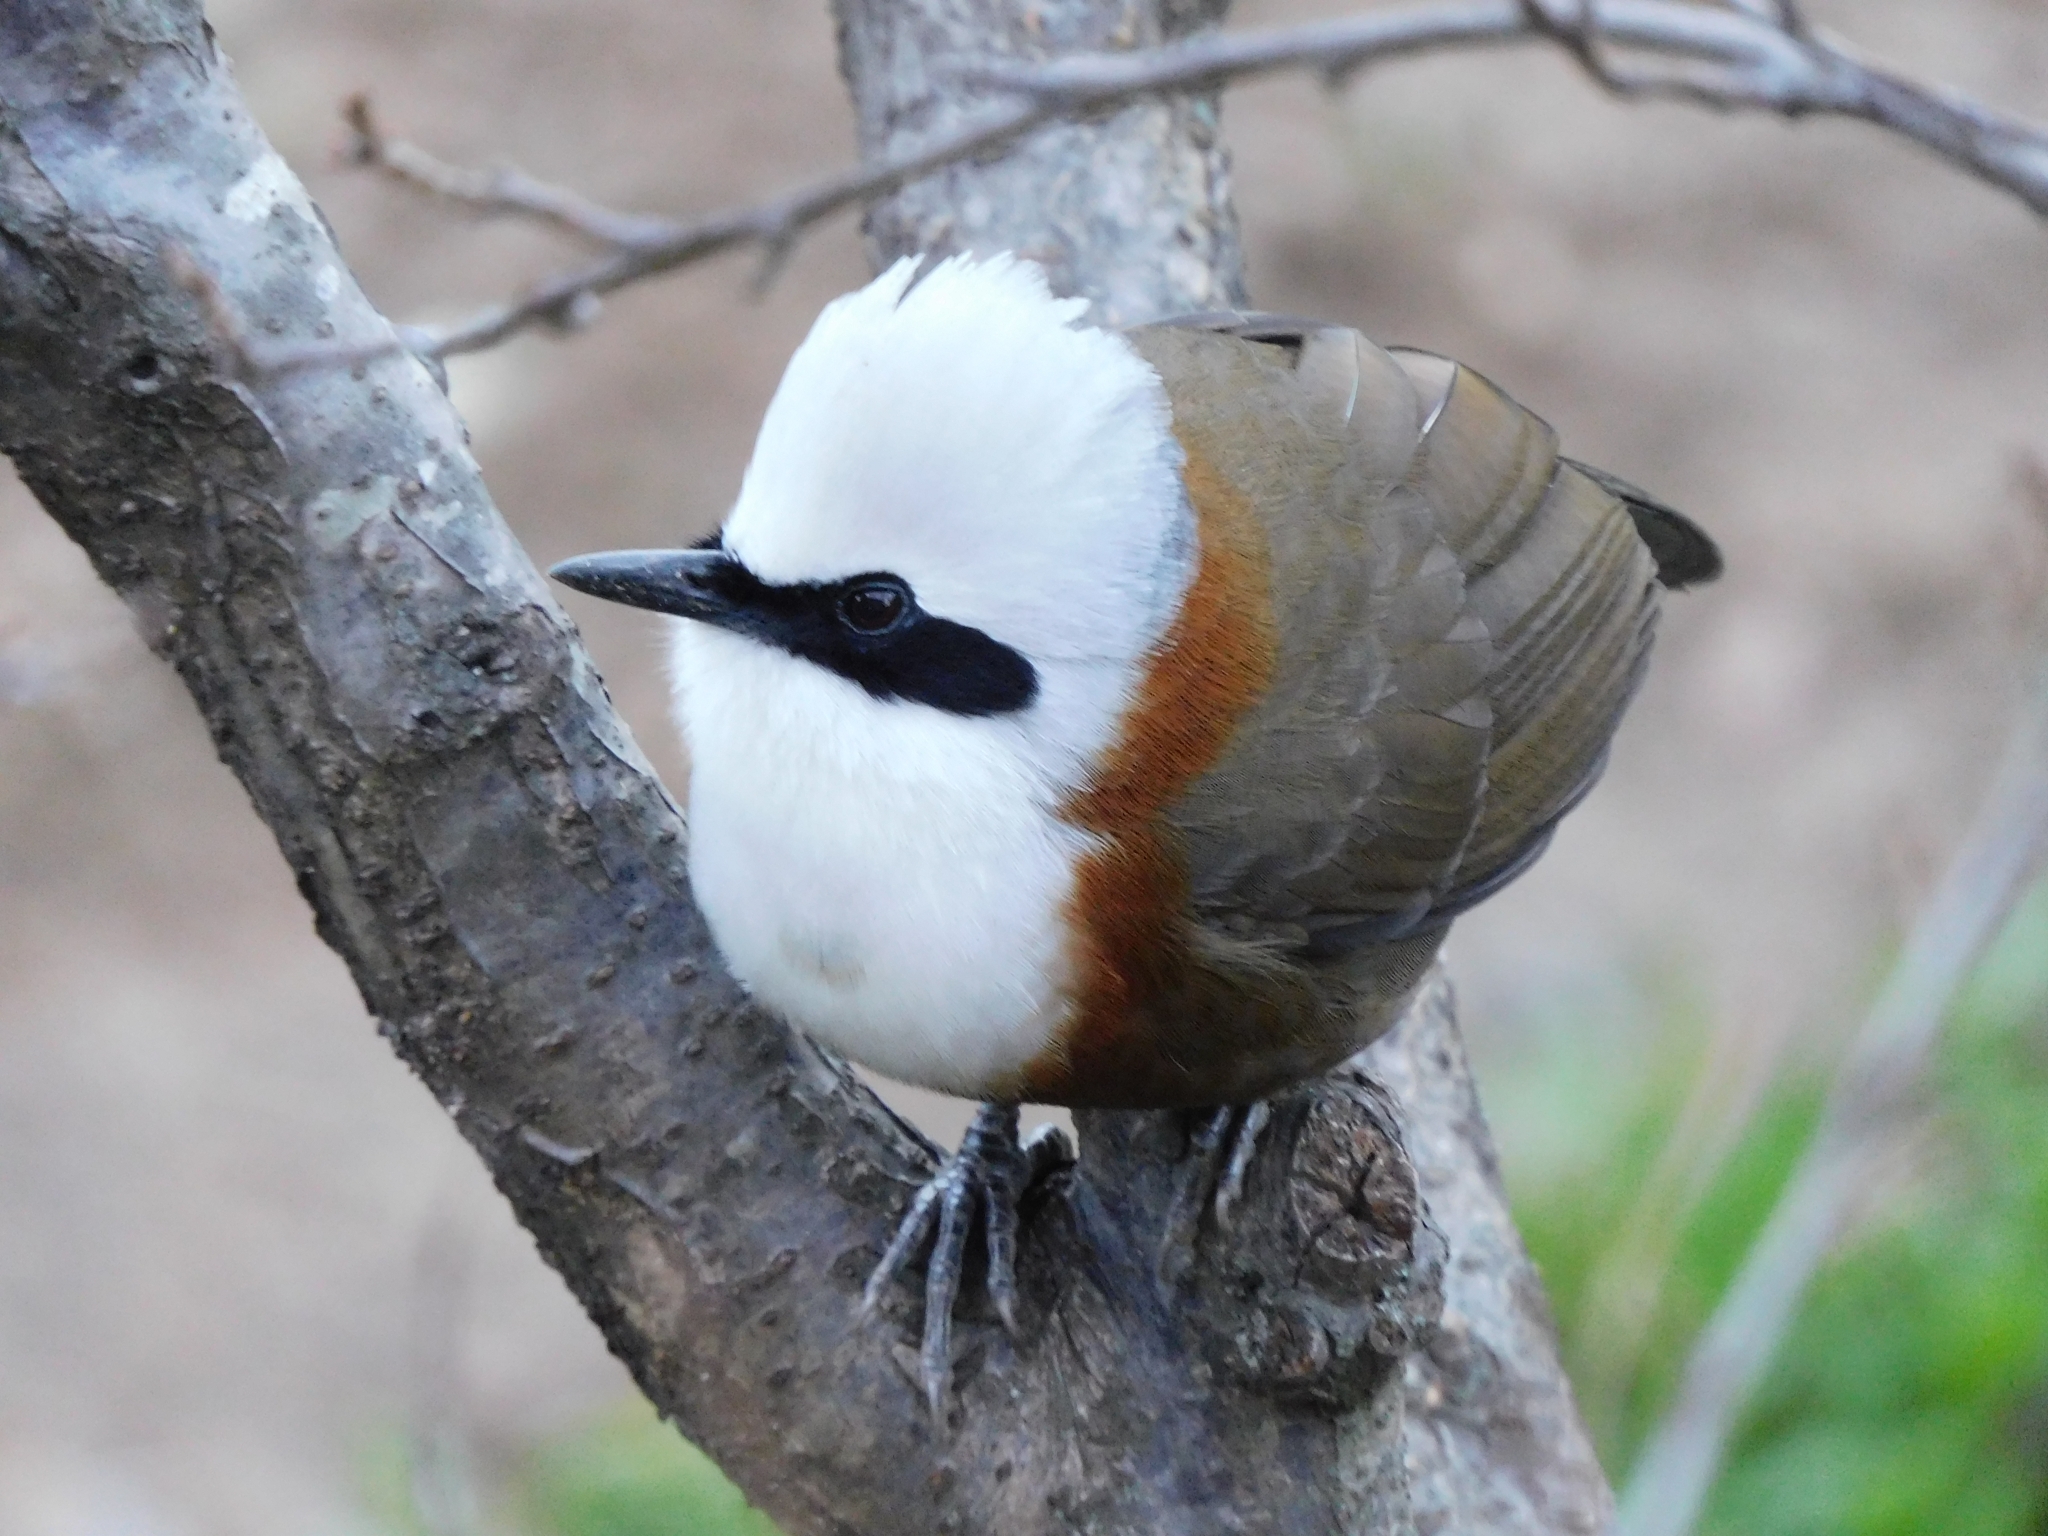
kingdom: Animalia
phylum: Chordata
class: Aves
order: Passeriformes
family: Leiothrichidae
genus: Garrulax
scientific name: Garrulax leucolophus
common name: White-crested laughingthrush
